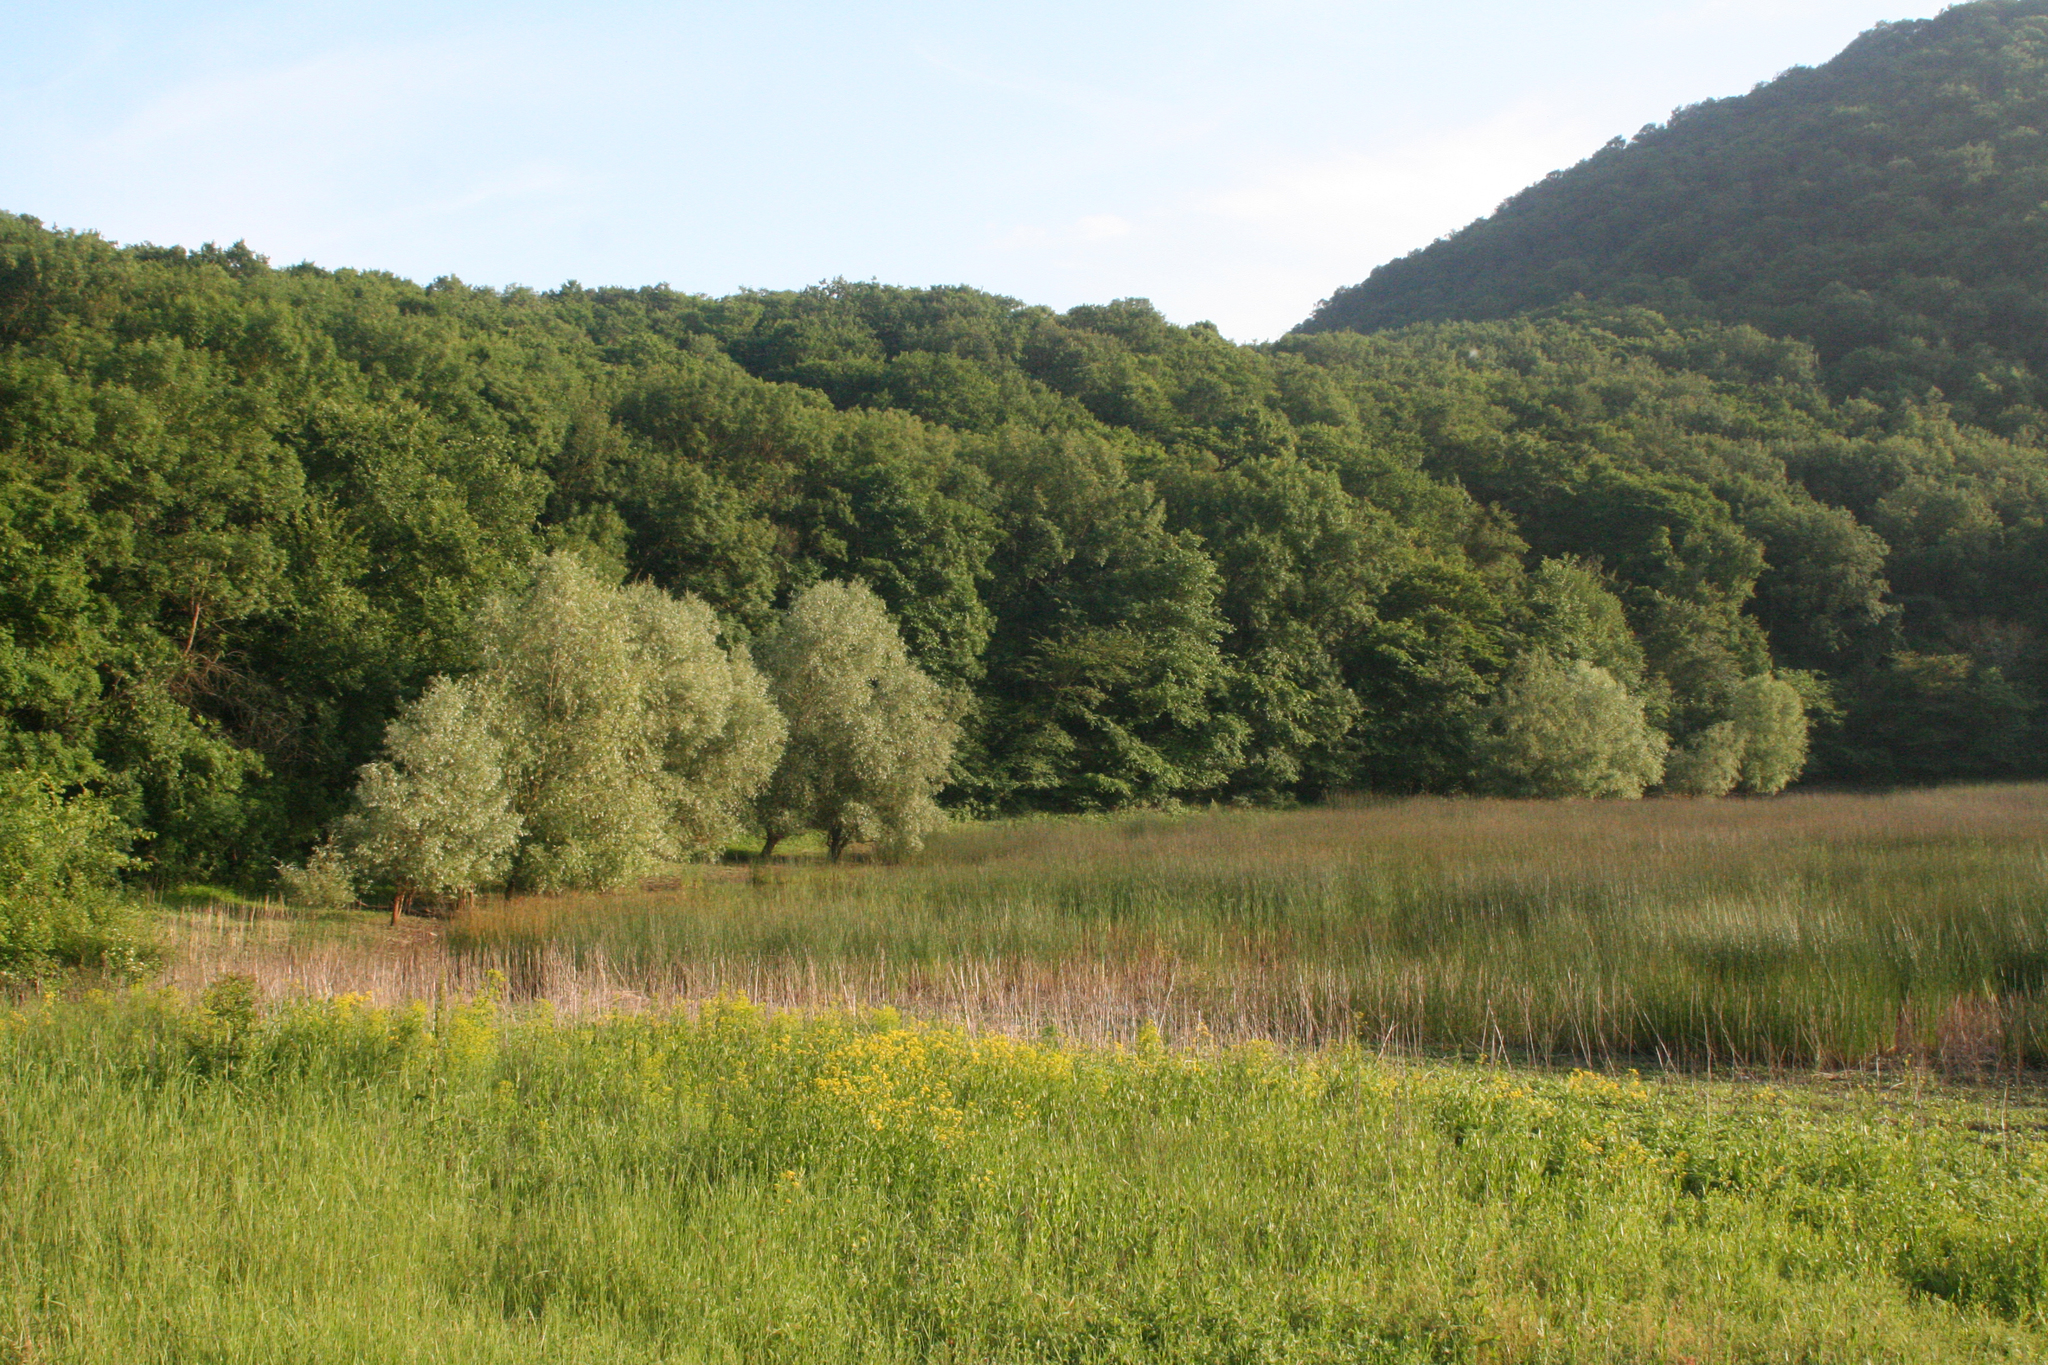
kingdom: Plantae
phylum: Tracheophyta
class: Liliopsida
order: Poales
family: Cyperaceae
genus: Schoenoplectus
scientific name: Schoenoplectus lacustris
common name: Common club-rush
